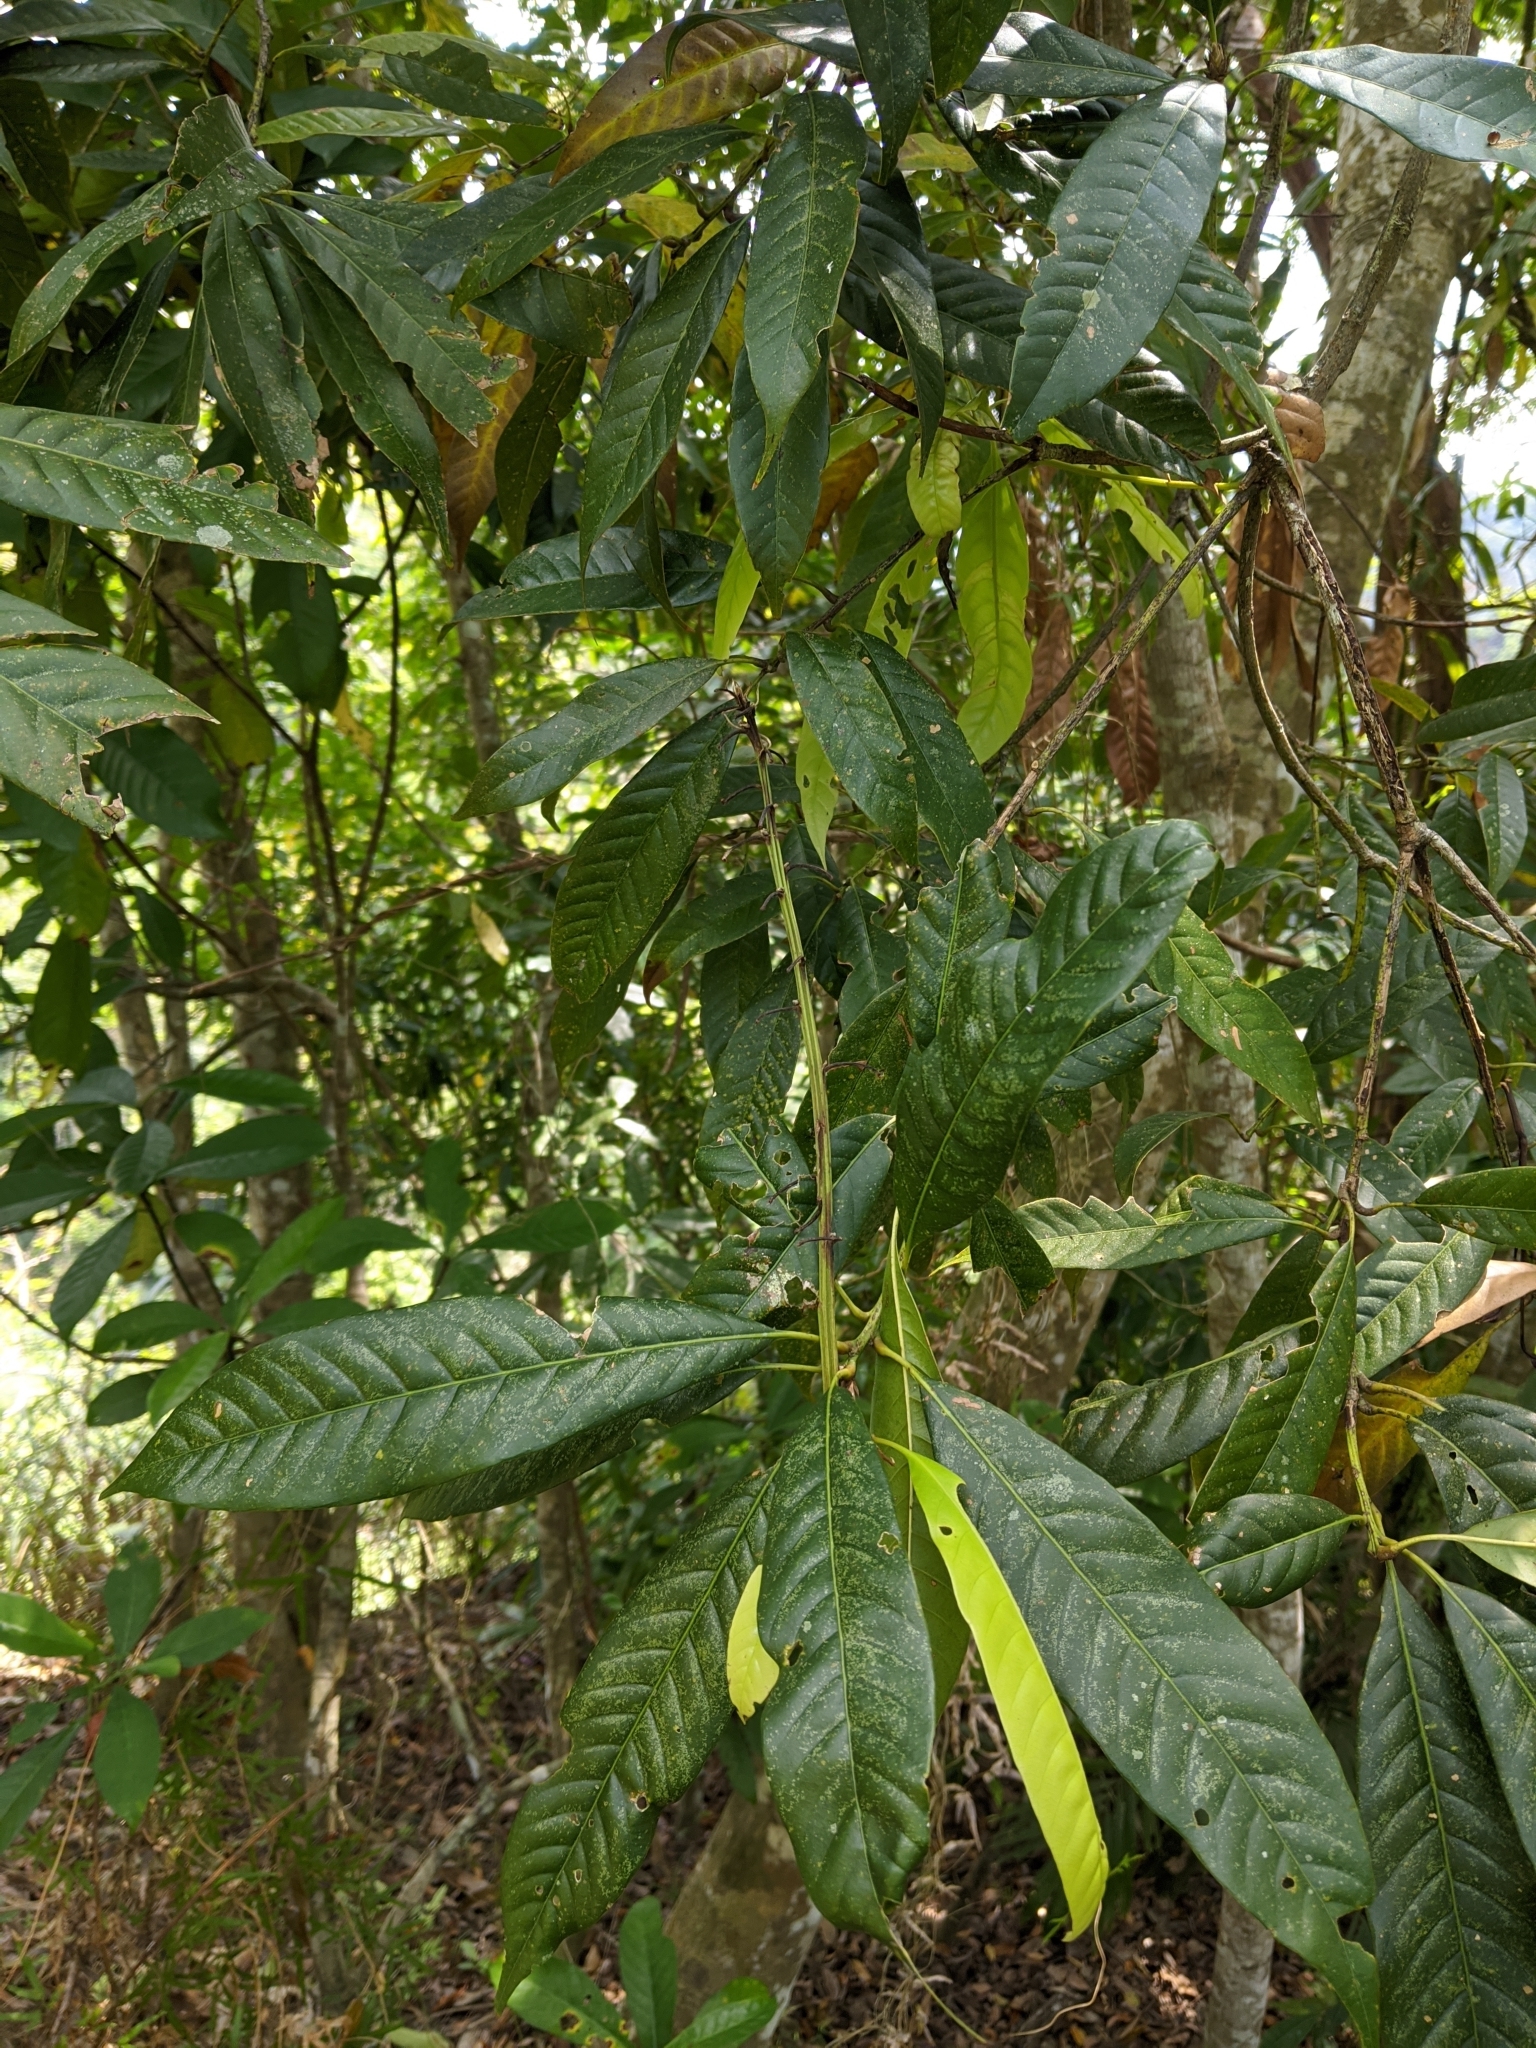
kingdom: Plantae
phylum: Tracheophyta
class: Magnoliopsida
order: Fagales
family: Fagaceae
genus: Lithocarpus
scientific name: Lithocarpus brevicaudatus
